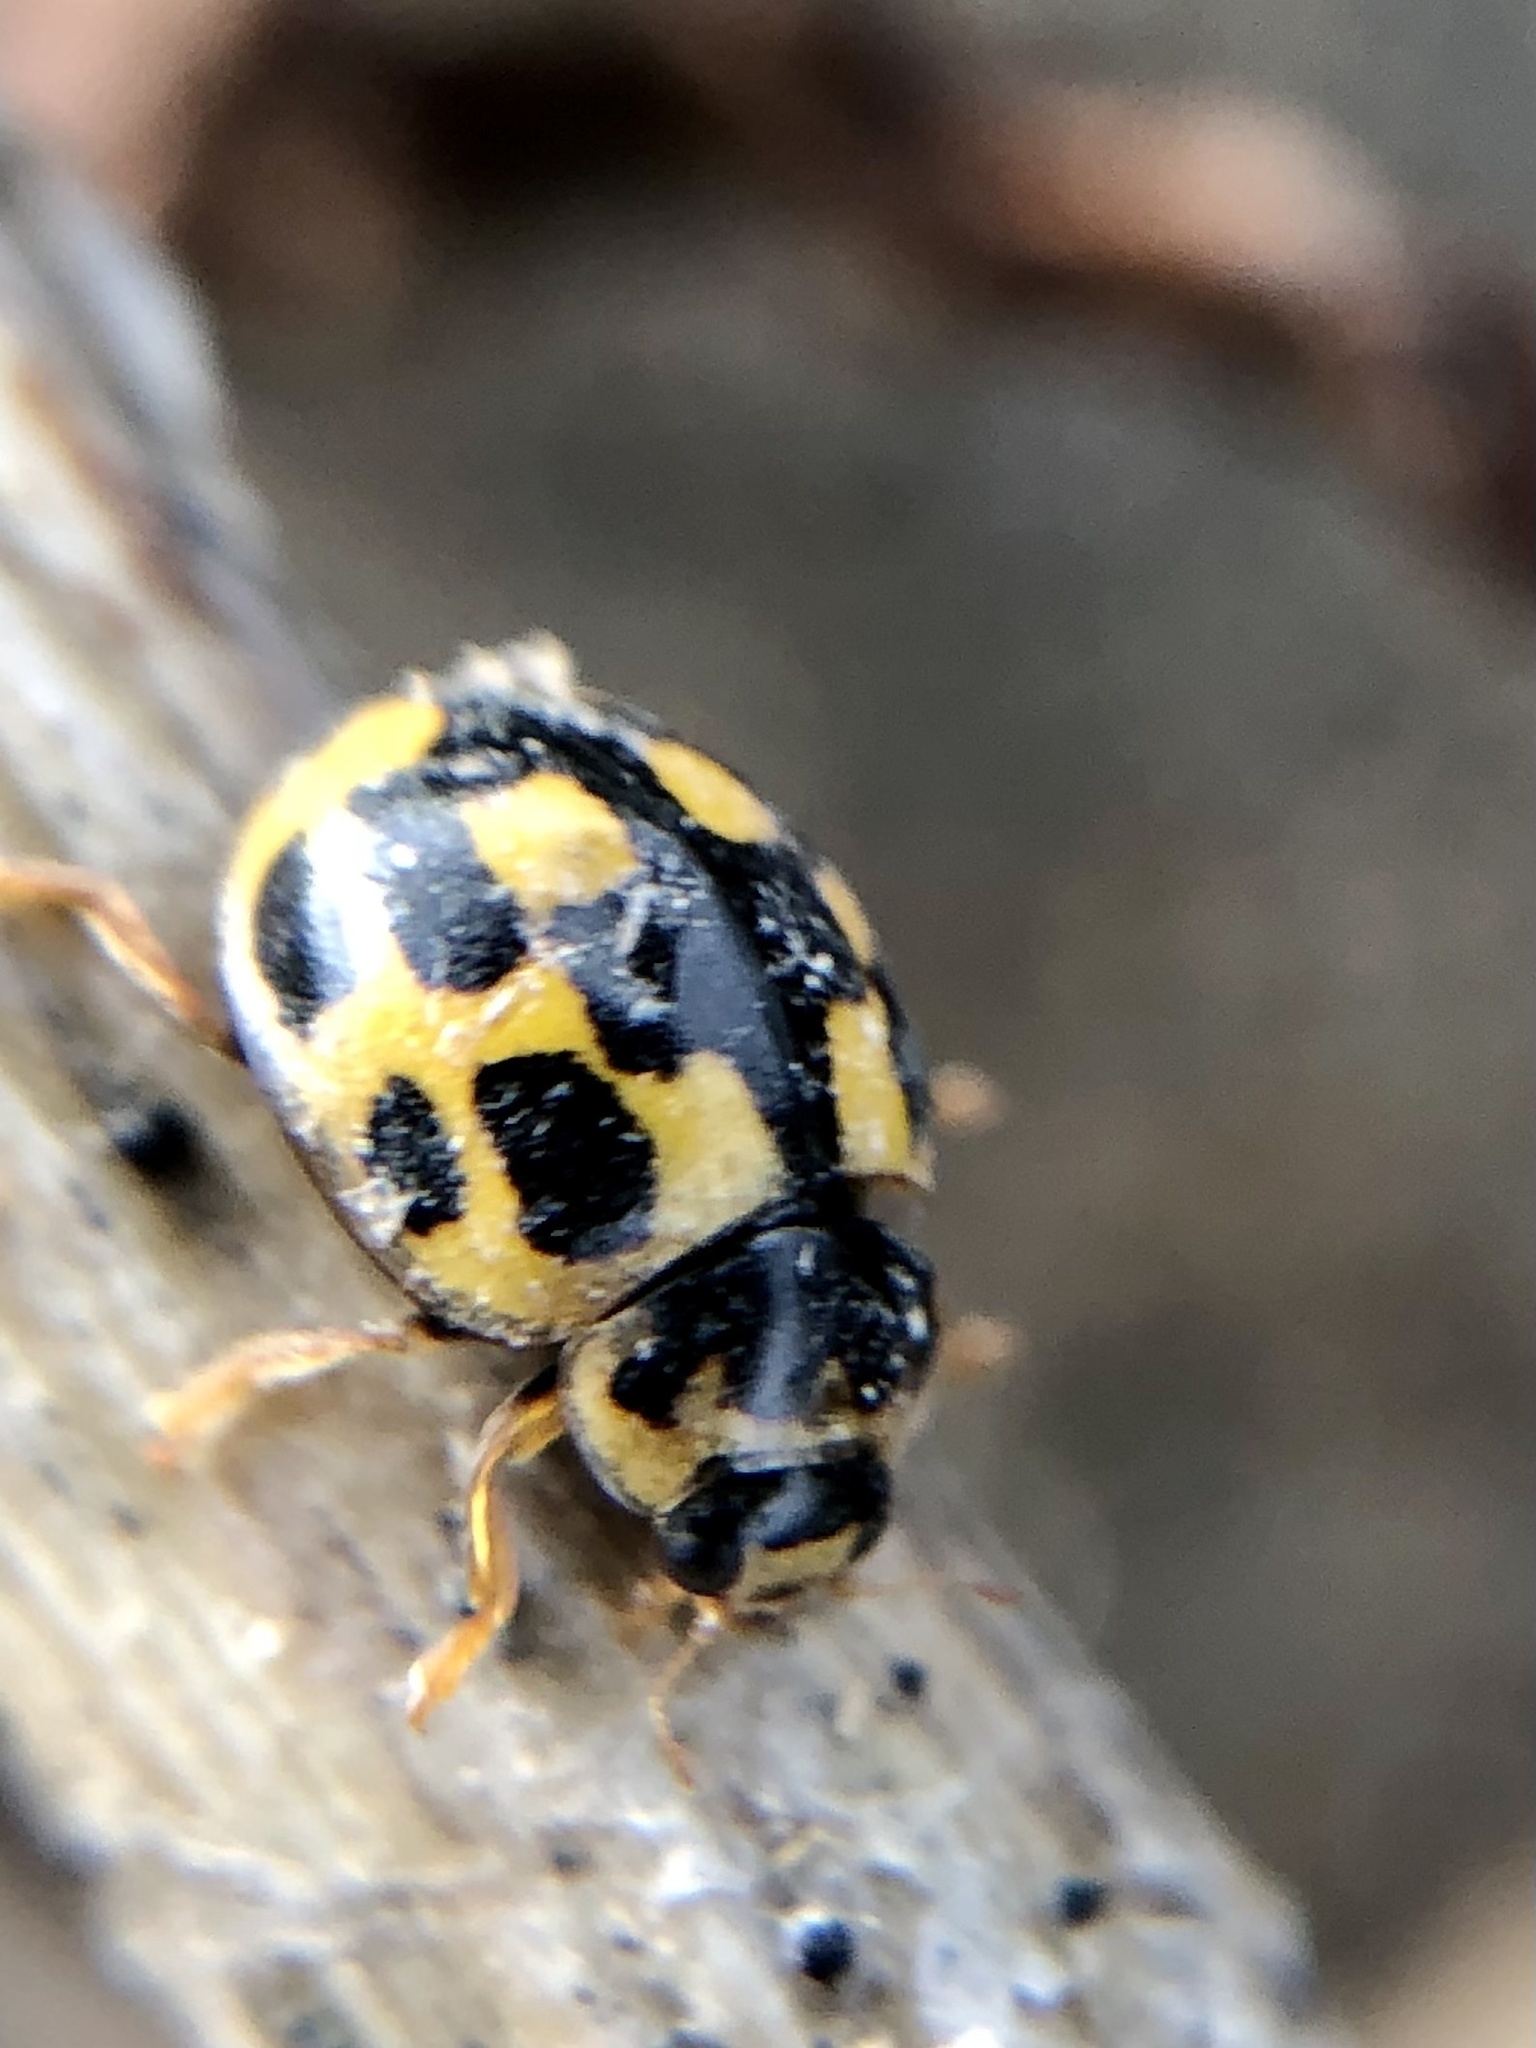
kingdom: Animalia
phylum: Arthropoda
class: Insecta
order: Coleoptera
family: Coccinellidae
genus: Propylaea
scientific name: Propylaea quatuordecimpunctata
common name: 14-spotted ladybird beetle
